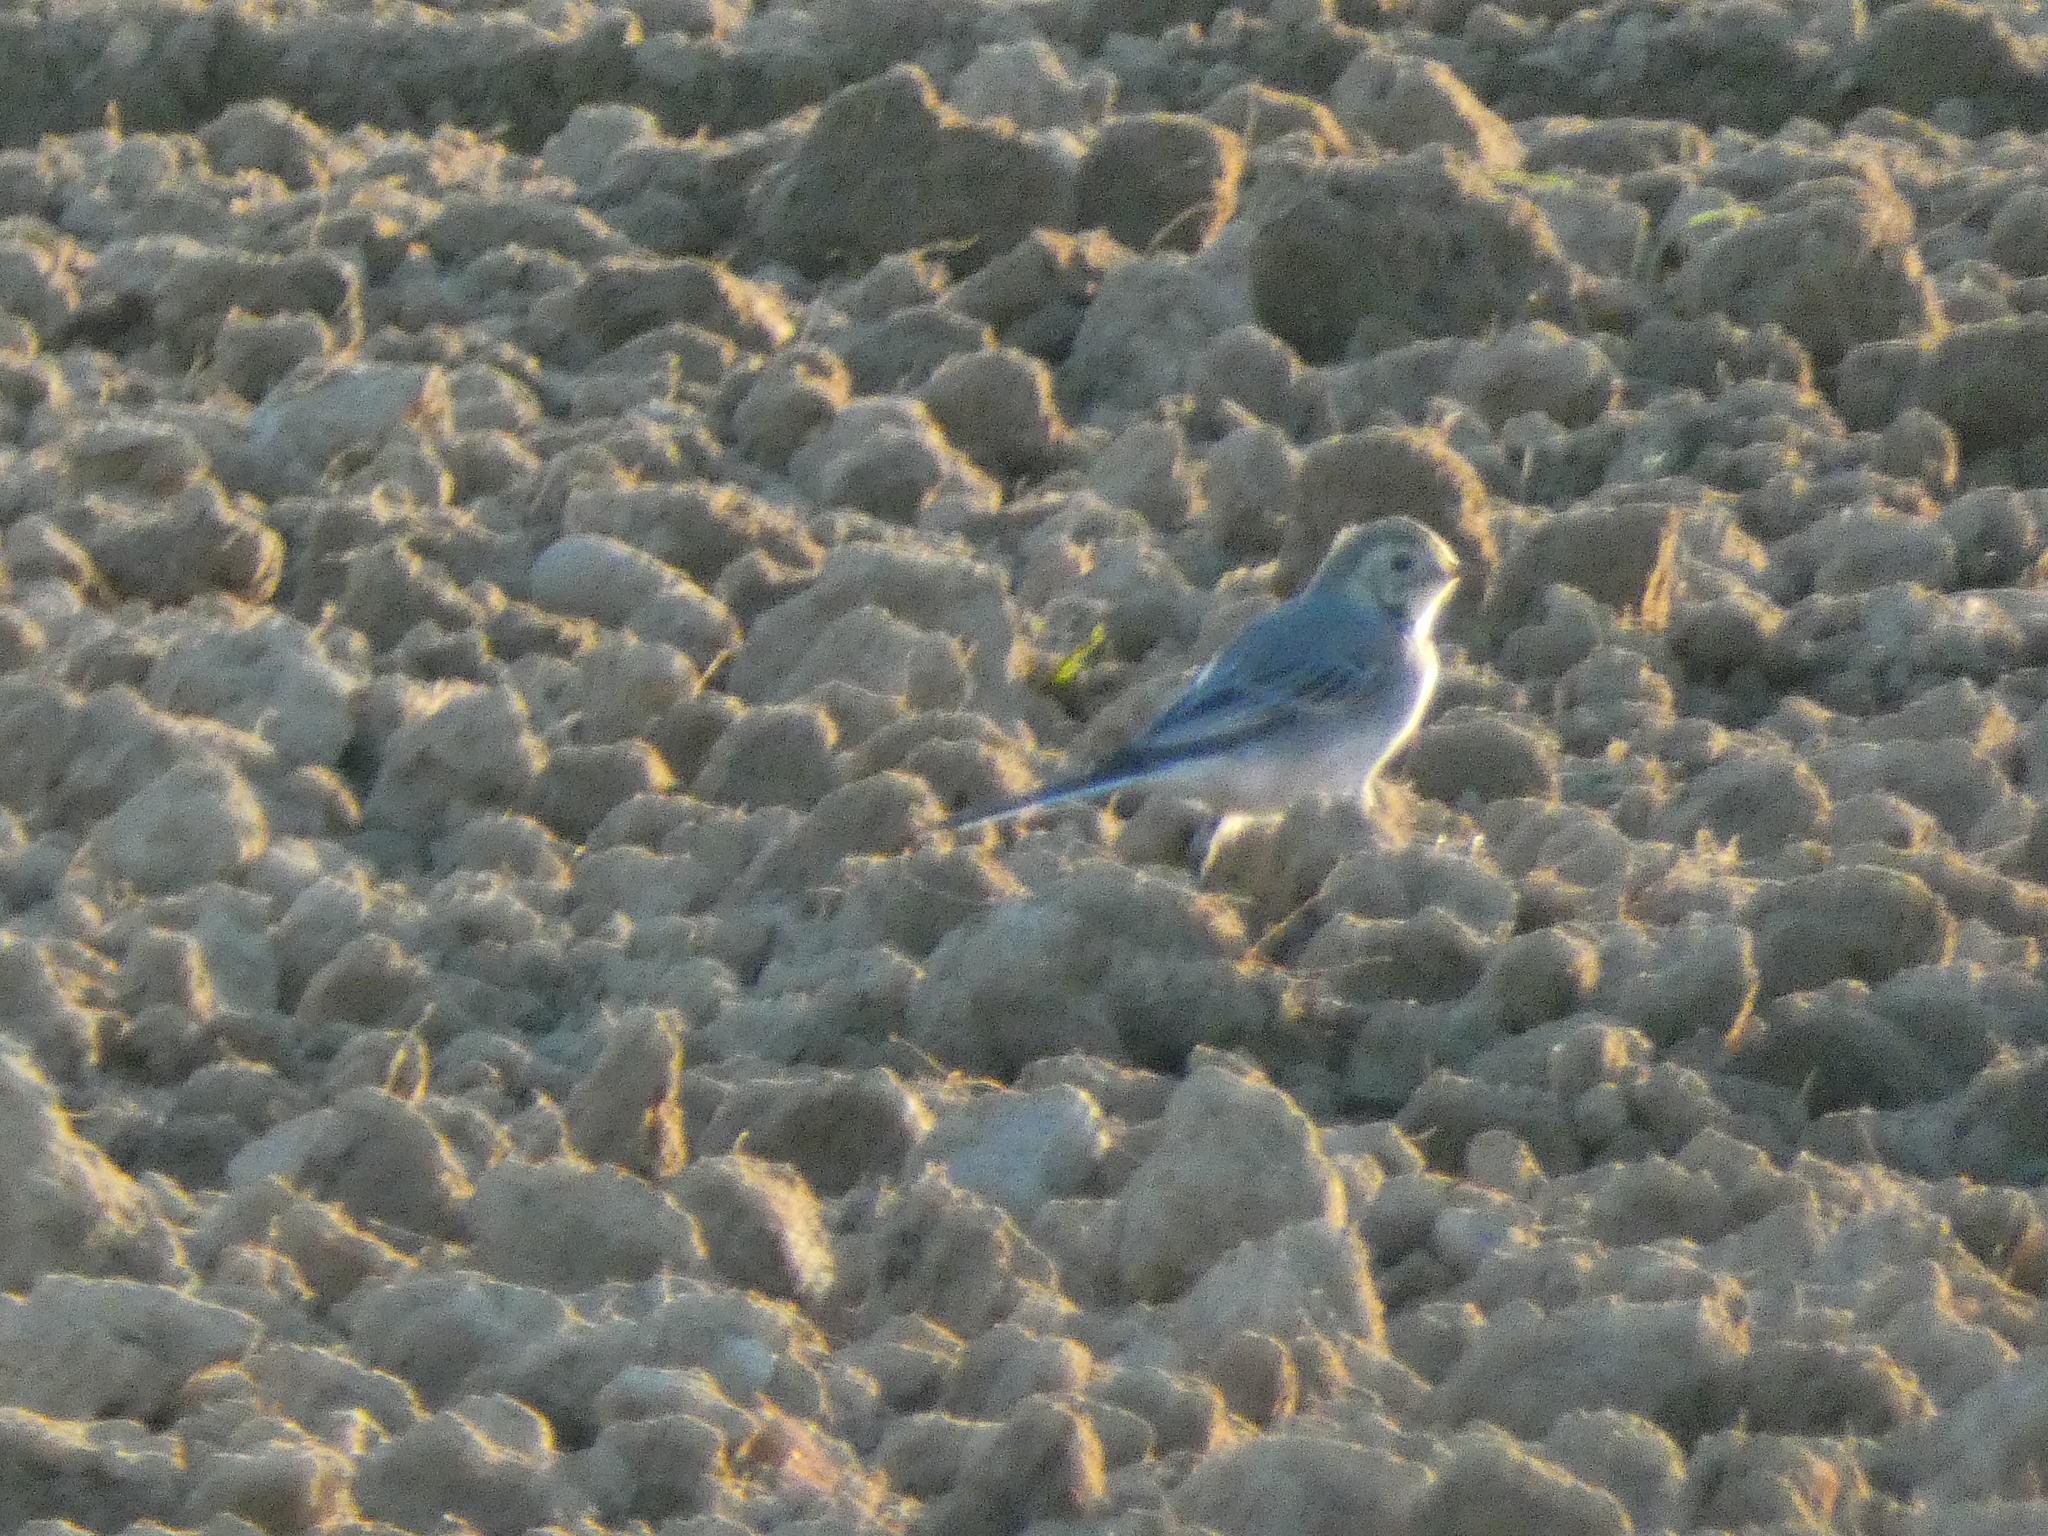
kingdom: Animalia
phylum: Chordata
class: Aves
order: Passeriformes
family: Motacillidae
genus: Motacilla
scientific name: Motacilla alba
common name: White wagtail
